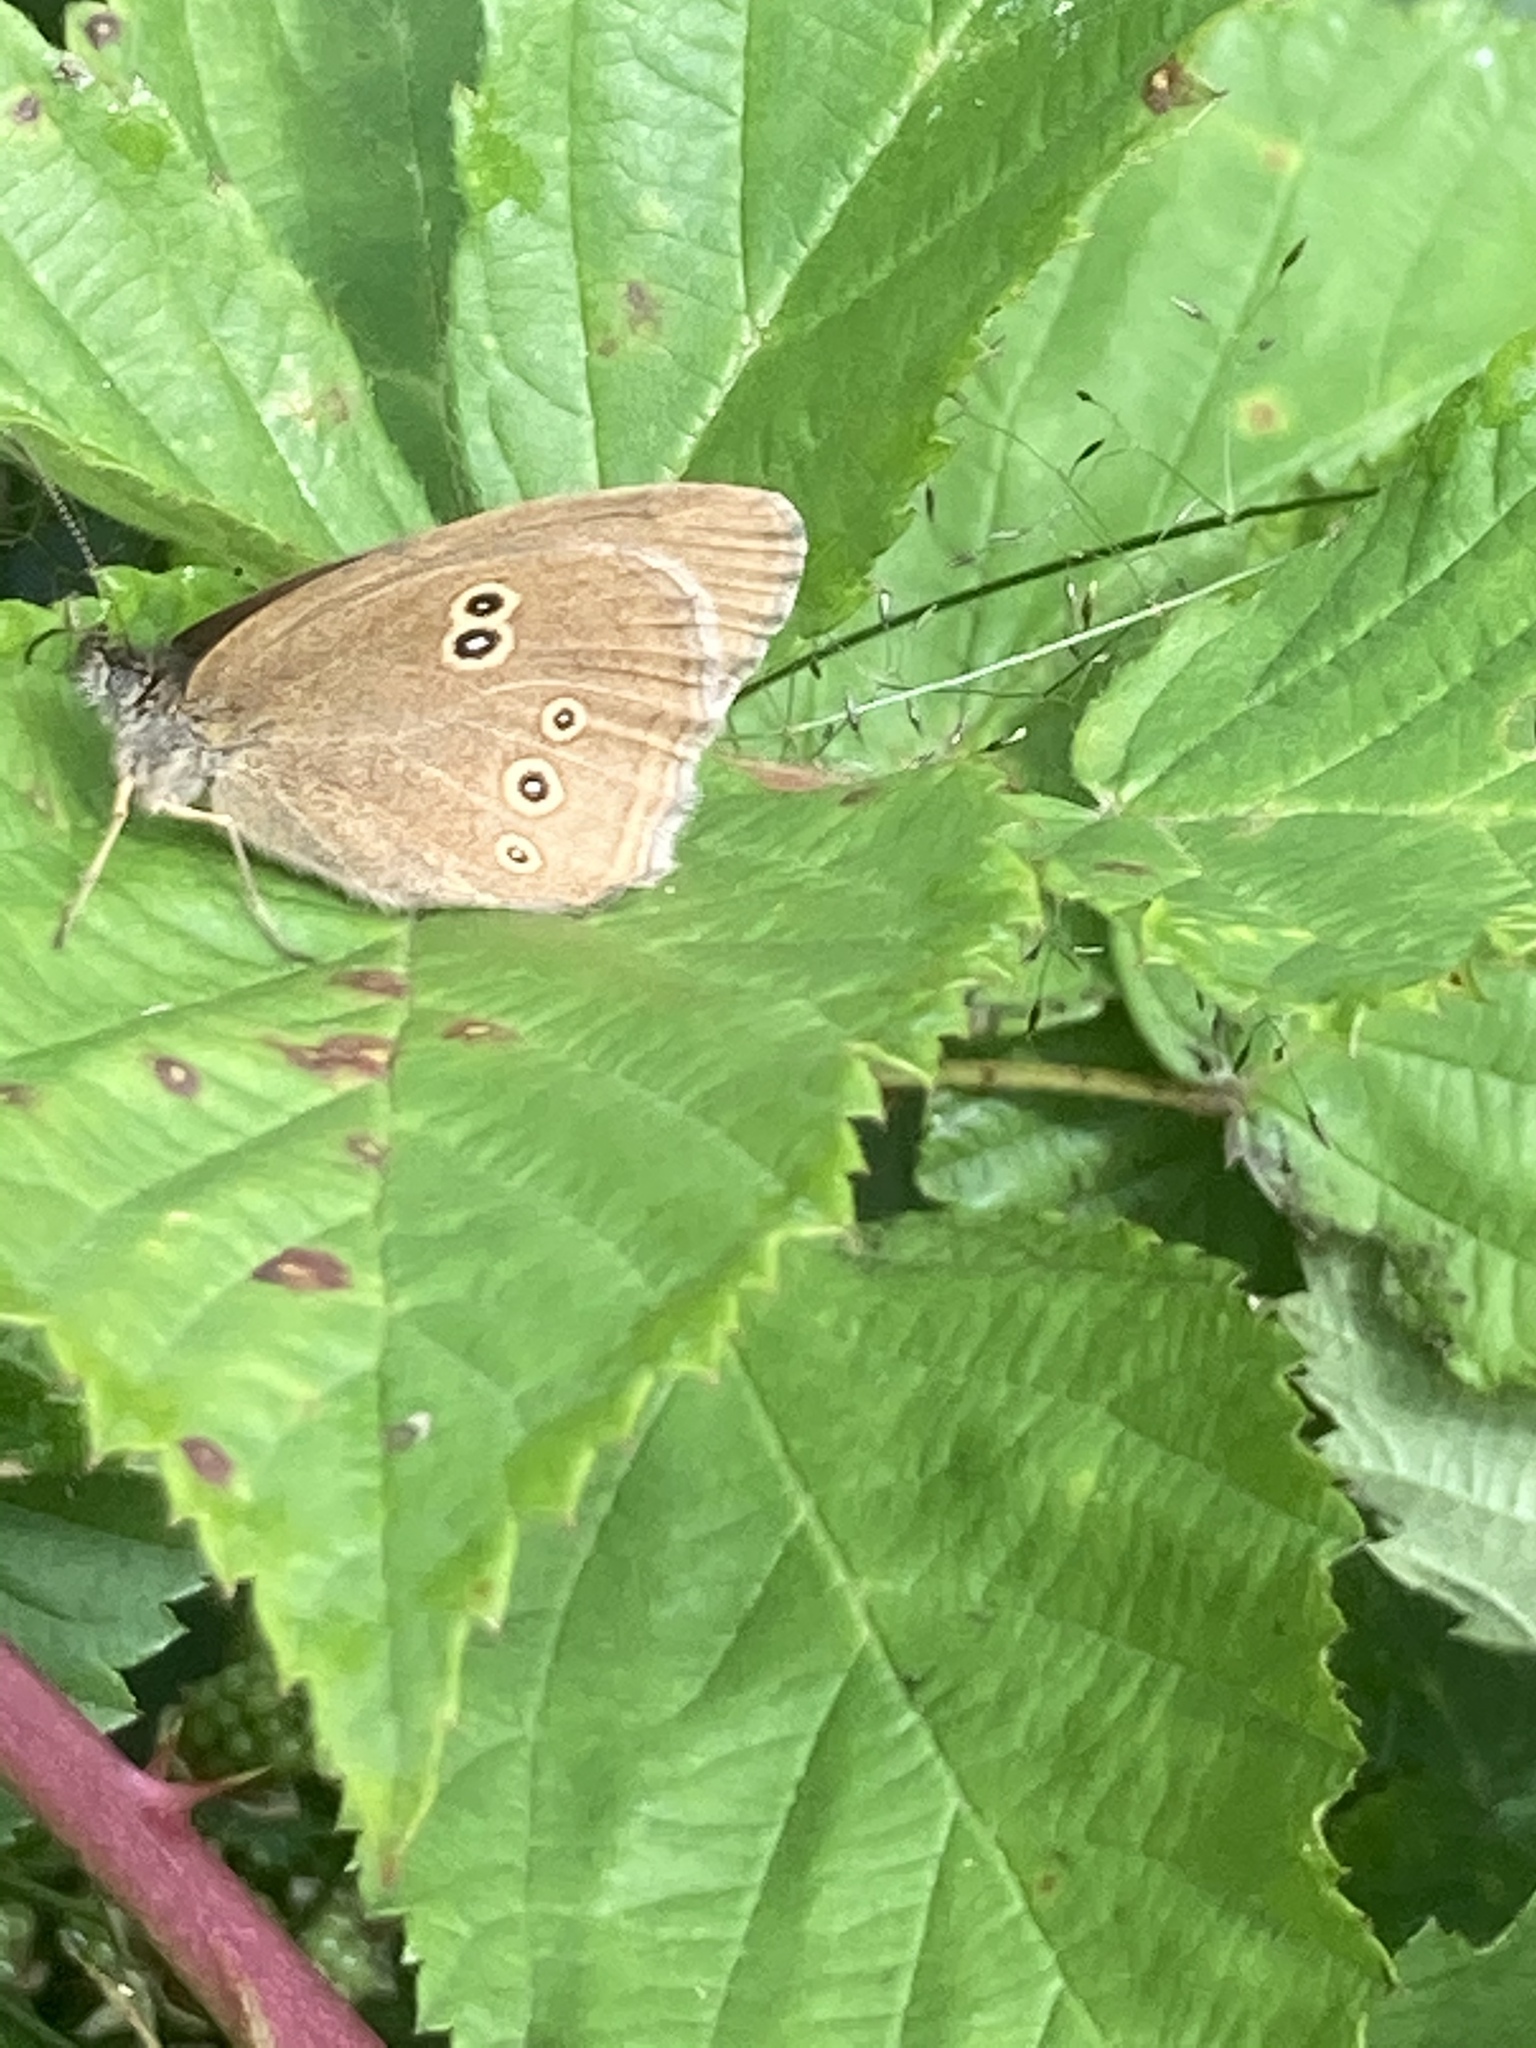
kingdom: Animalia
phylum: Arthropoda
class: Insecta
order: Lepidoptera
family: Nymphalidae
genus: Aphantopus
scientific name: Aphantopus hyperantus
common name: Ringlet
